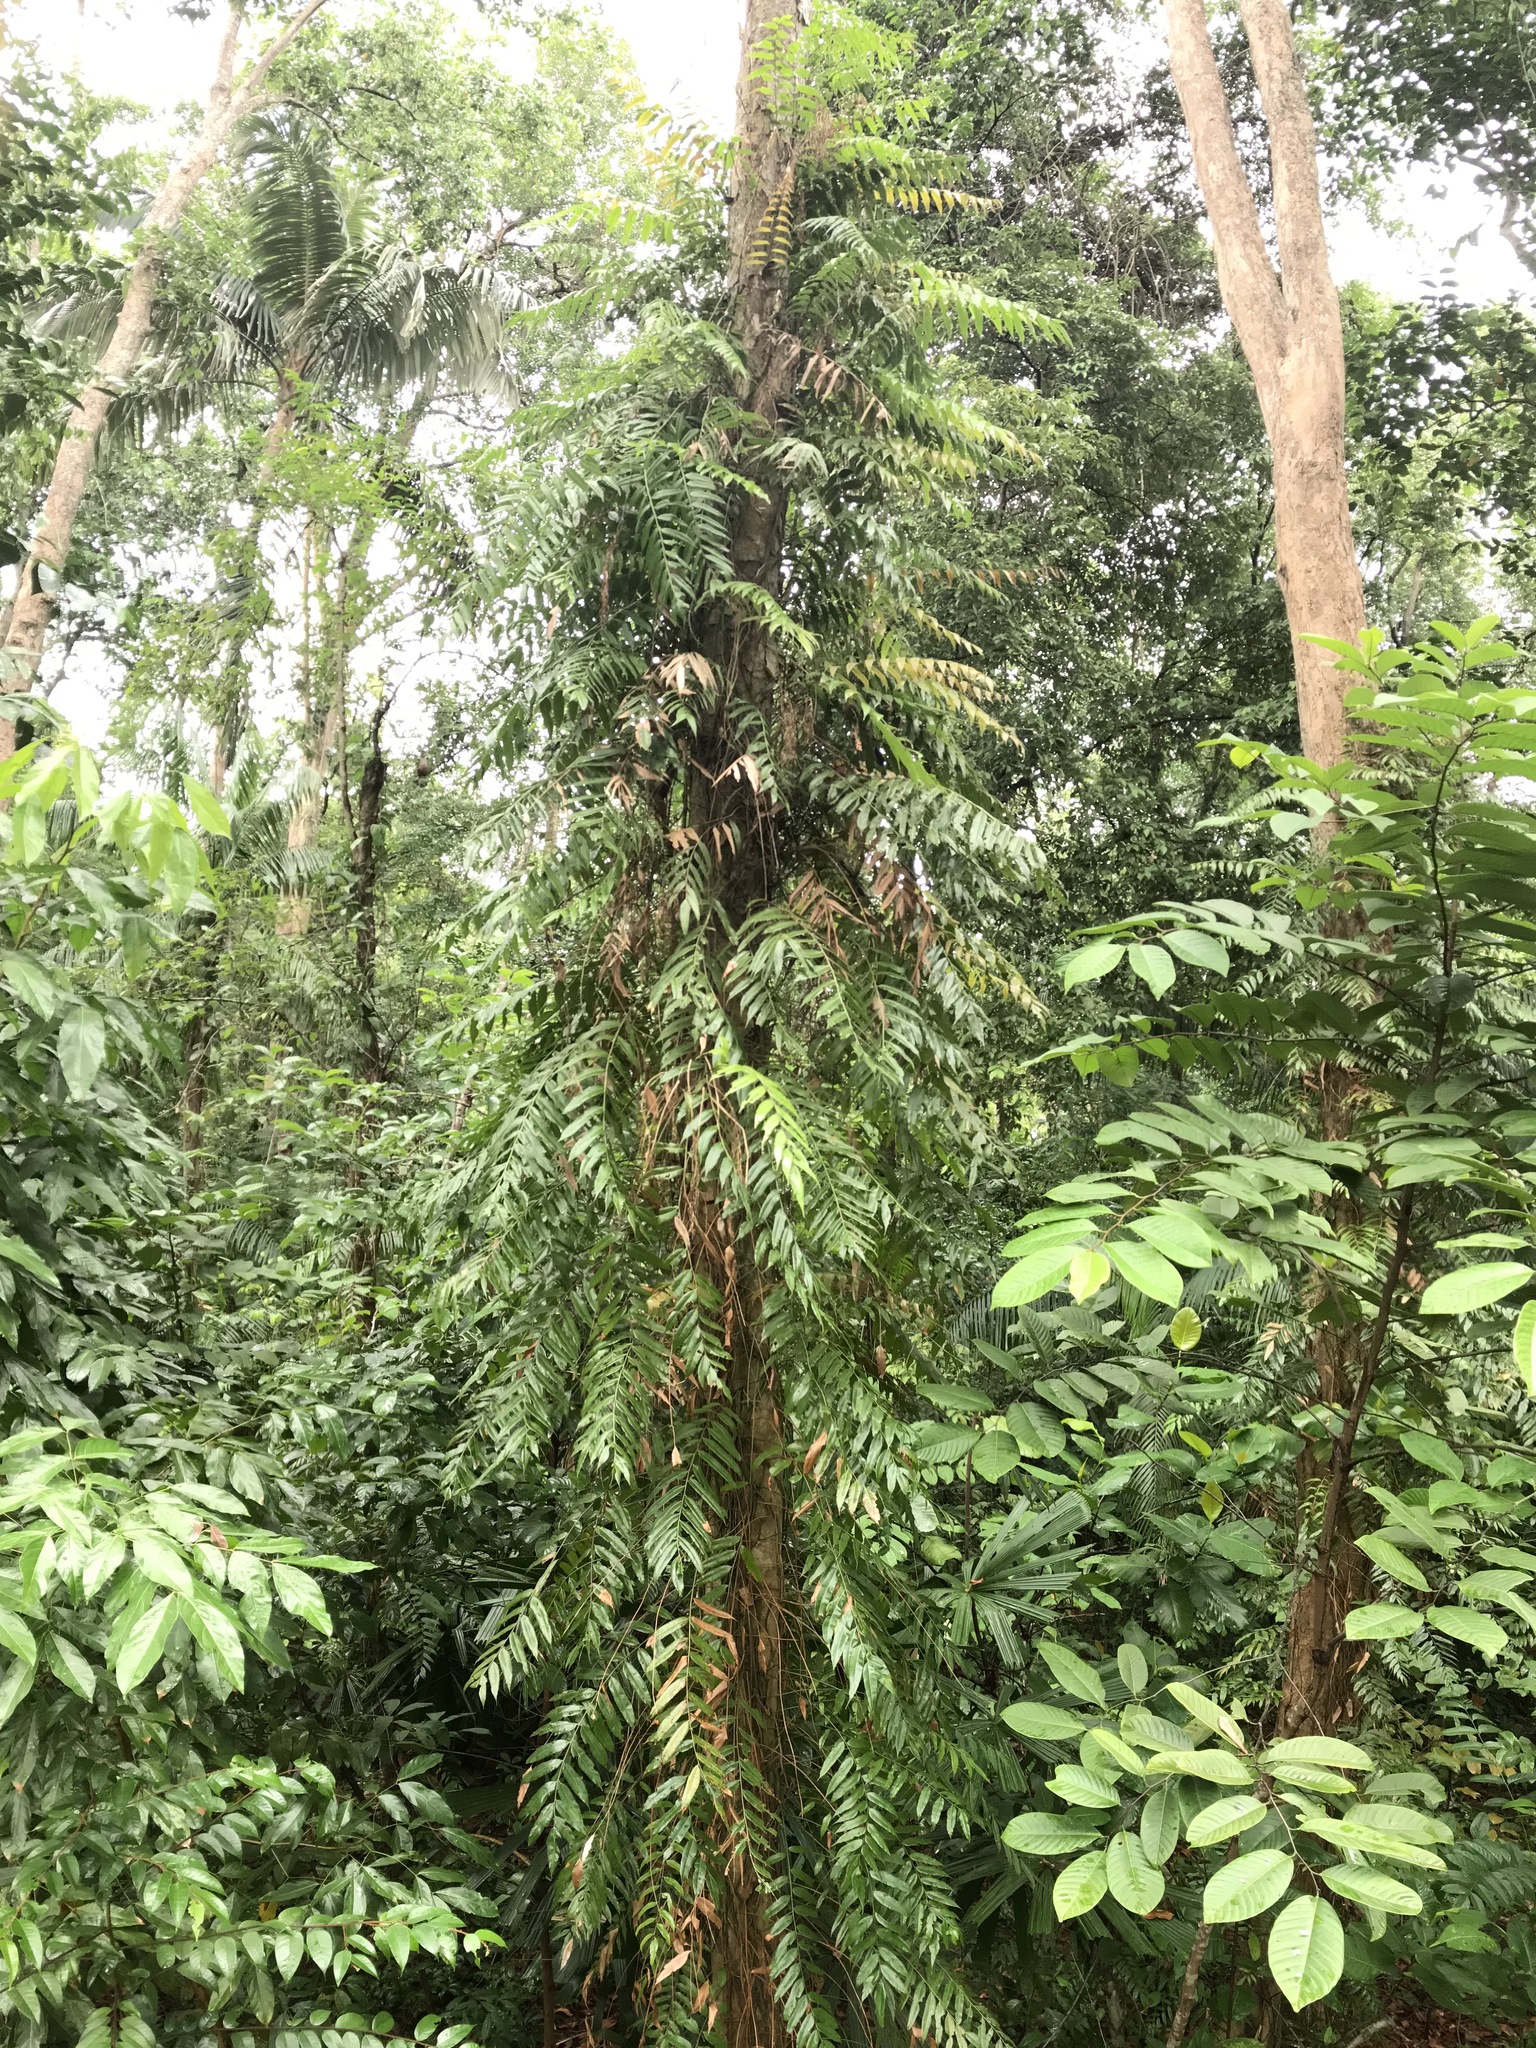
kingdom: Plantae
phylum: Tracheophyta
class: Polypodiopsida
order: Polypodiales
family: Blechnaceae
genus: Stenochlaena
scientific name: Stenochlaena palustris
